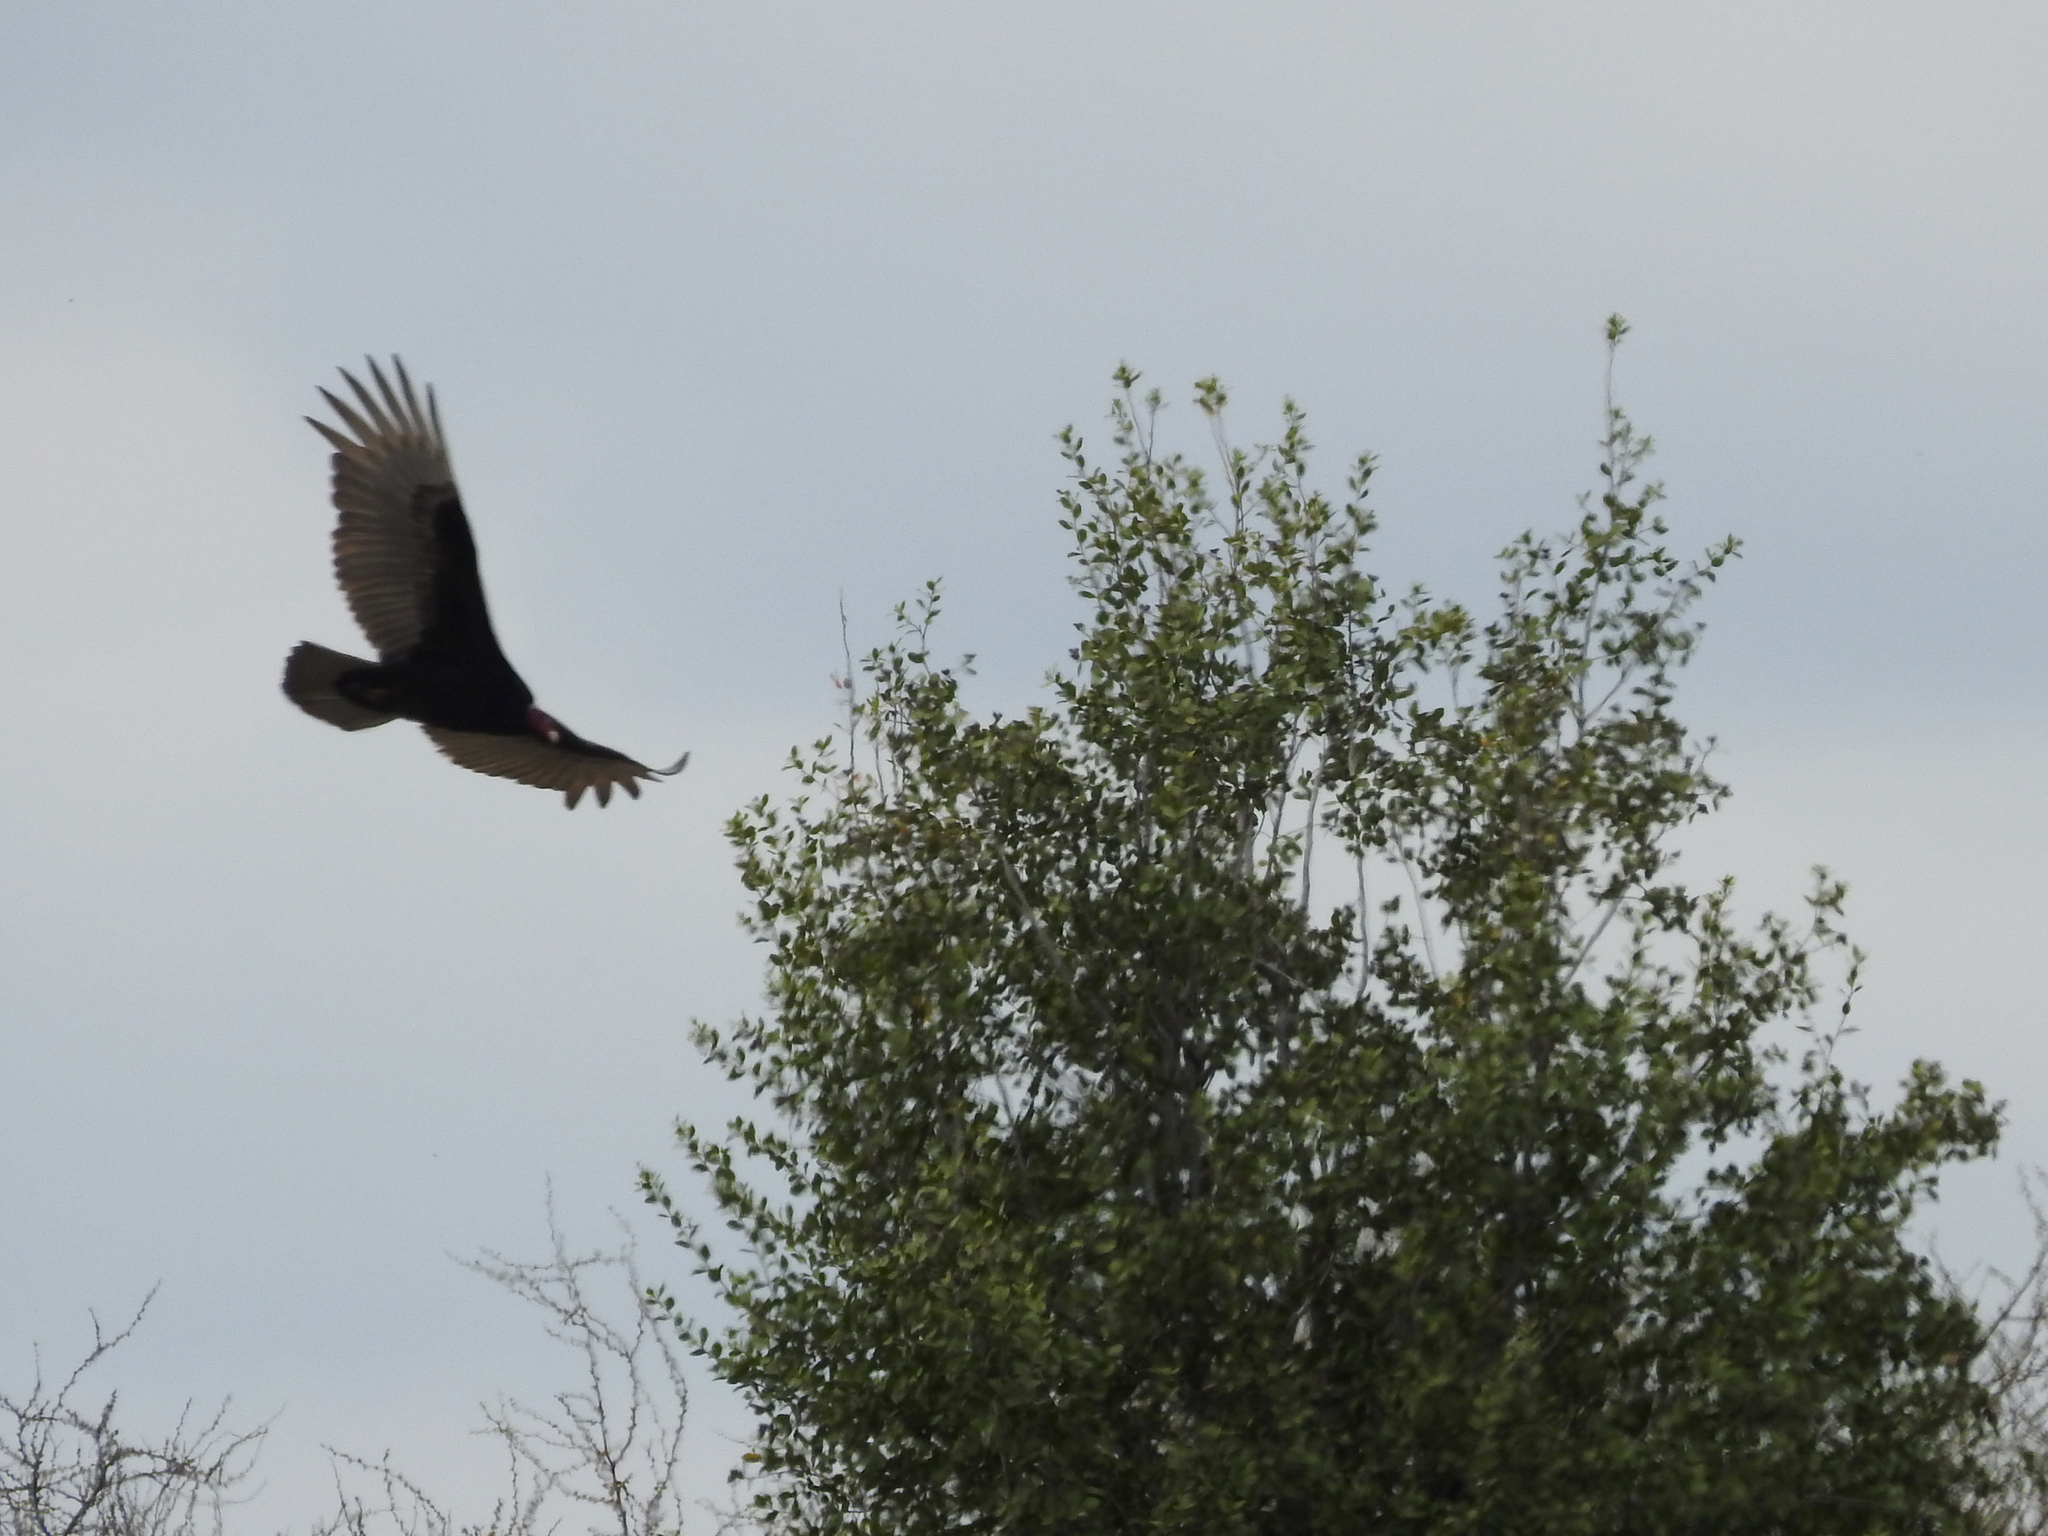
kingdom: Animalia
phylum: Chordata
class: Aves
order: Accipitriformes
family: Cathartidae
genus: Cathartes
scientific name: Cathartes aura
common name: Turkey vulture
